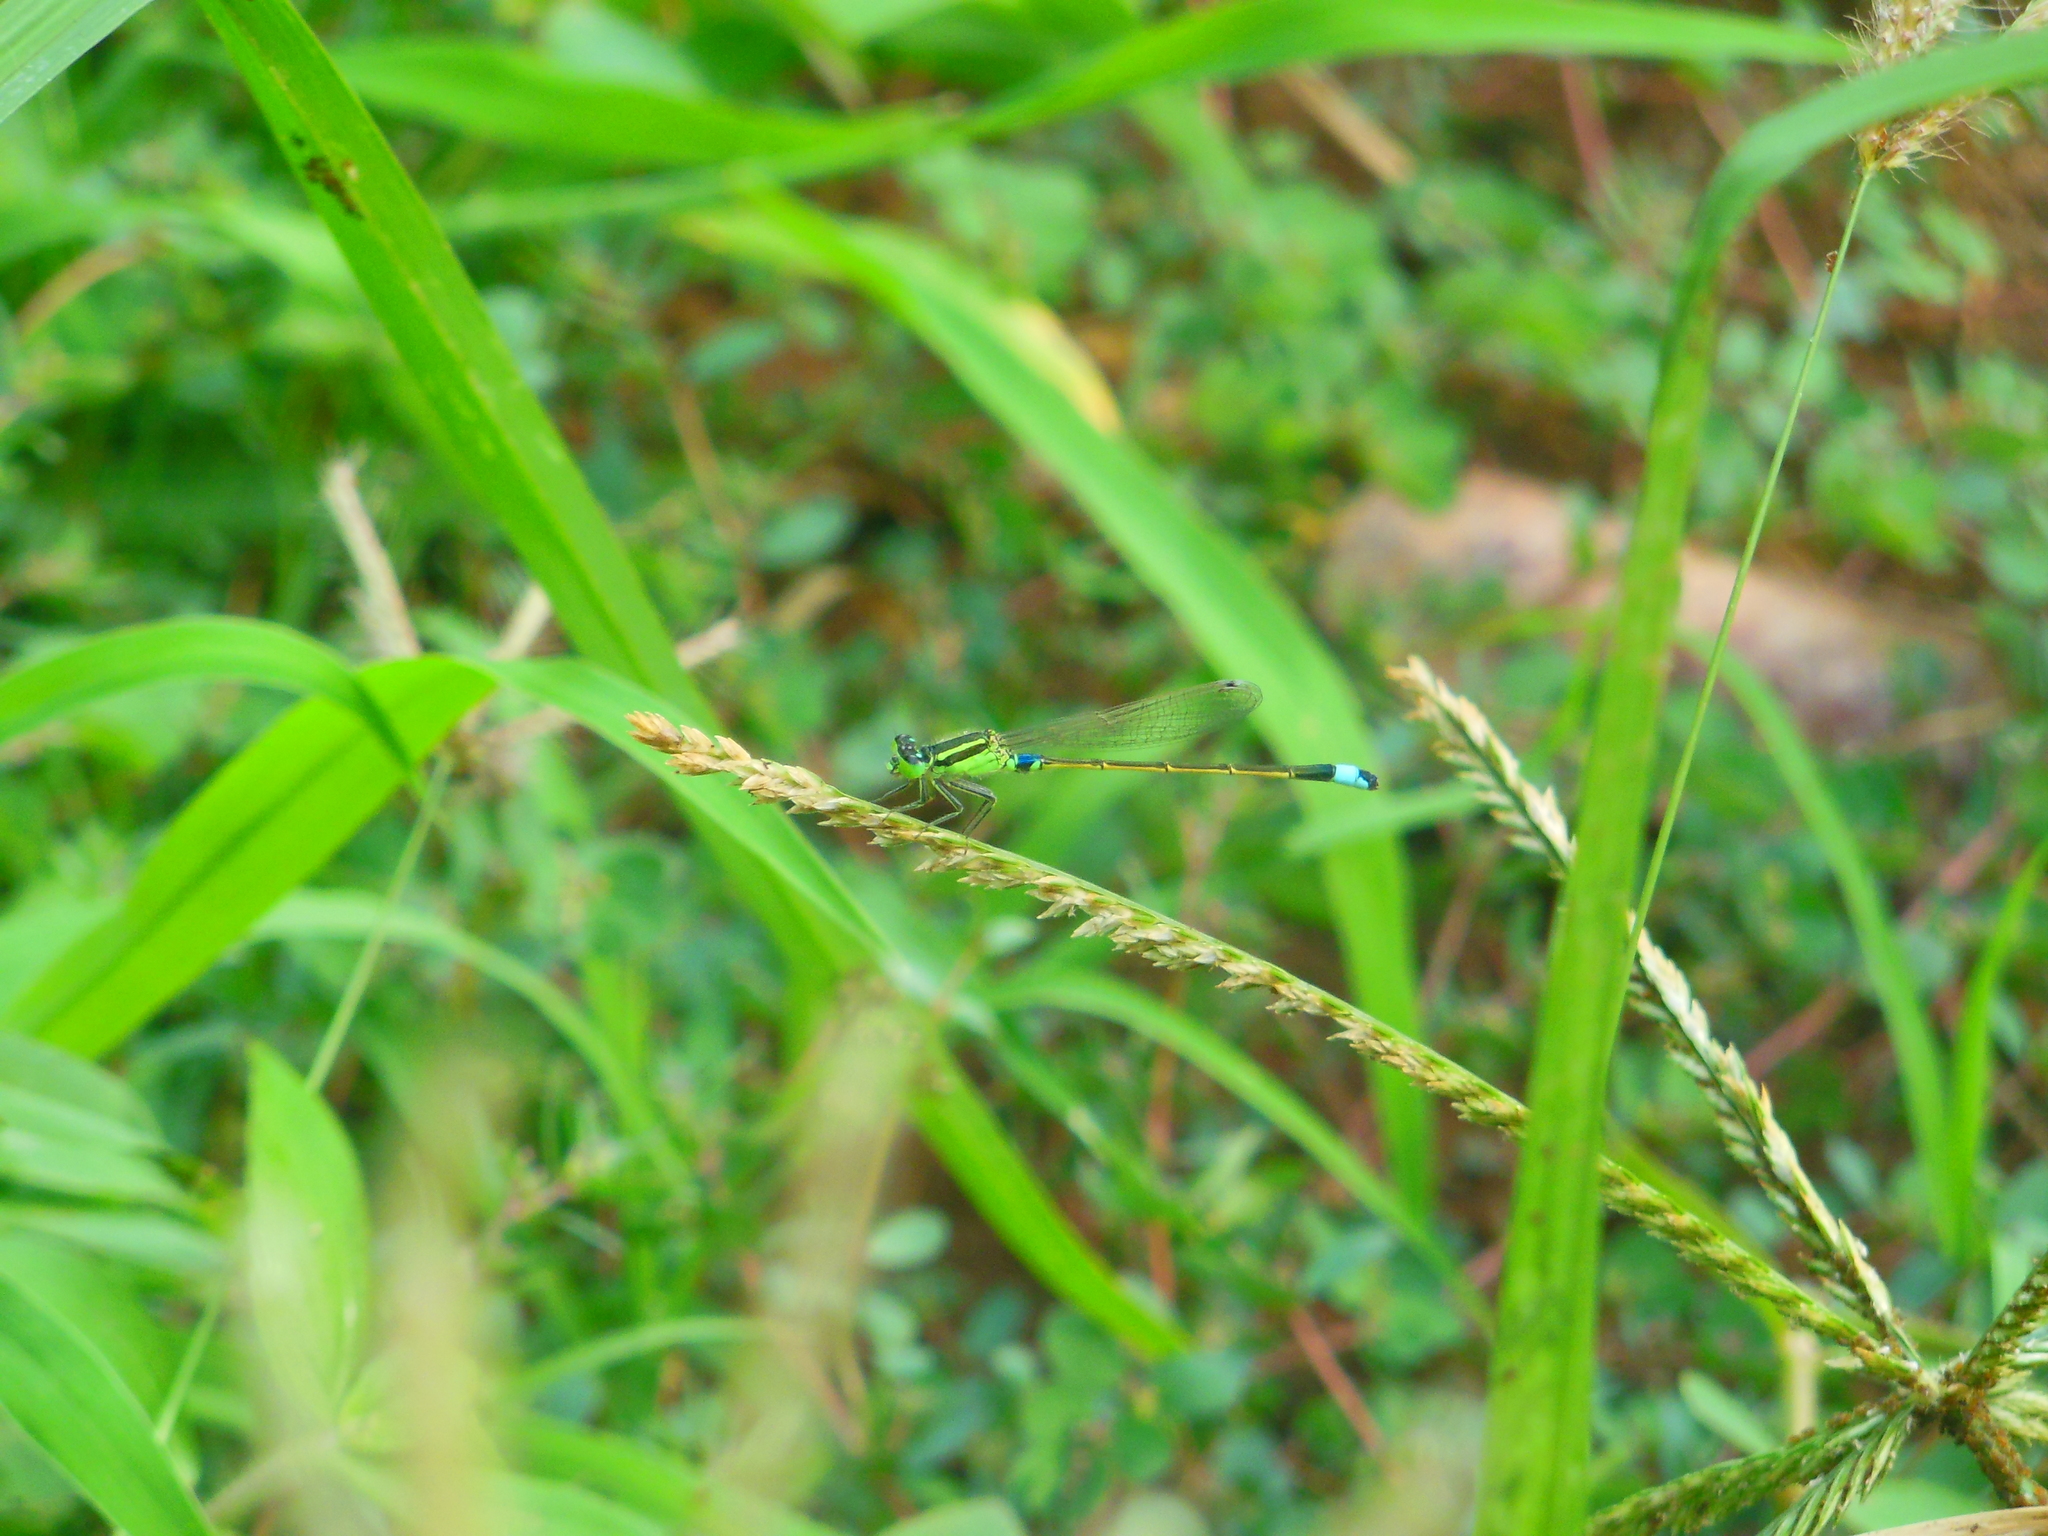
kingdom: Animalia
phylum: Arthropoda
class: Insecta
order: Odonata
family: Coenagrionidae
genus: Ischnura
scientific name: Ischnura senegalensis
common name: Tropical bluetail
